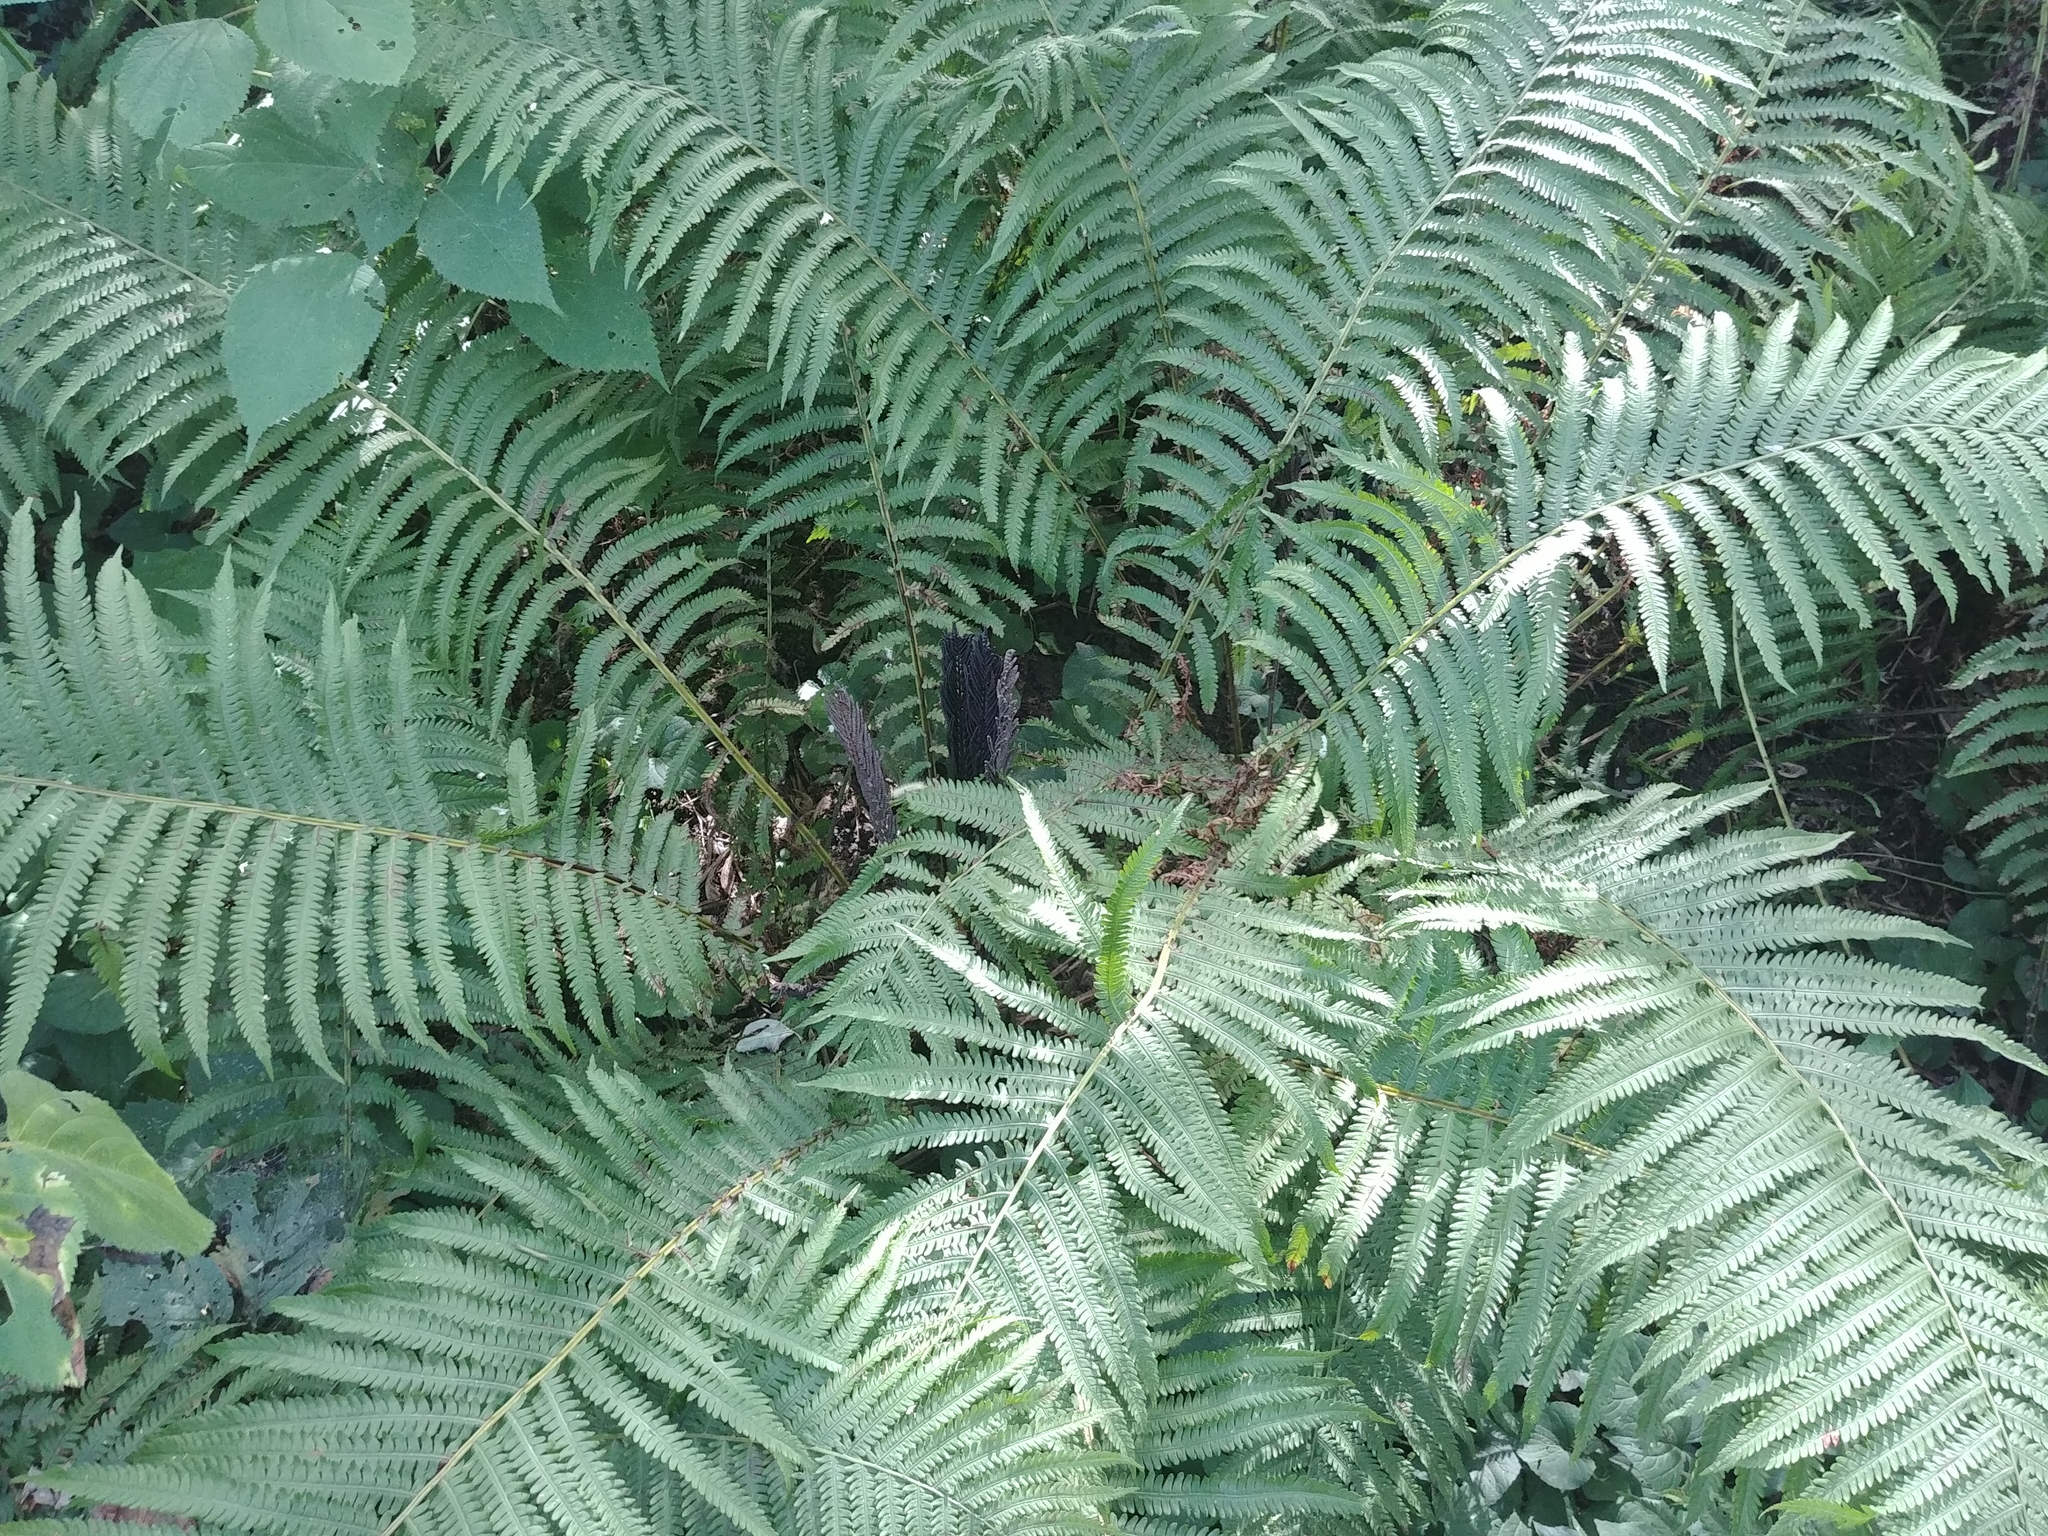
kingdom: Plantae
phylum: Tracheophyta
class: Polypodiopsida
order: Polypodiales
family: Onocleaceae
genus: Matteuccia
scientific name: Matteuccia struthiopteris
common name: Ostrich fern
